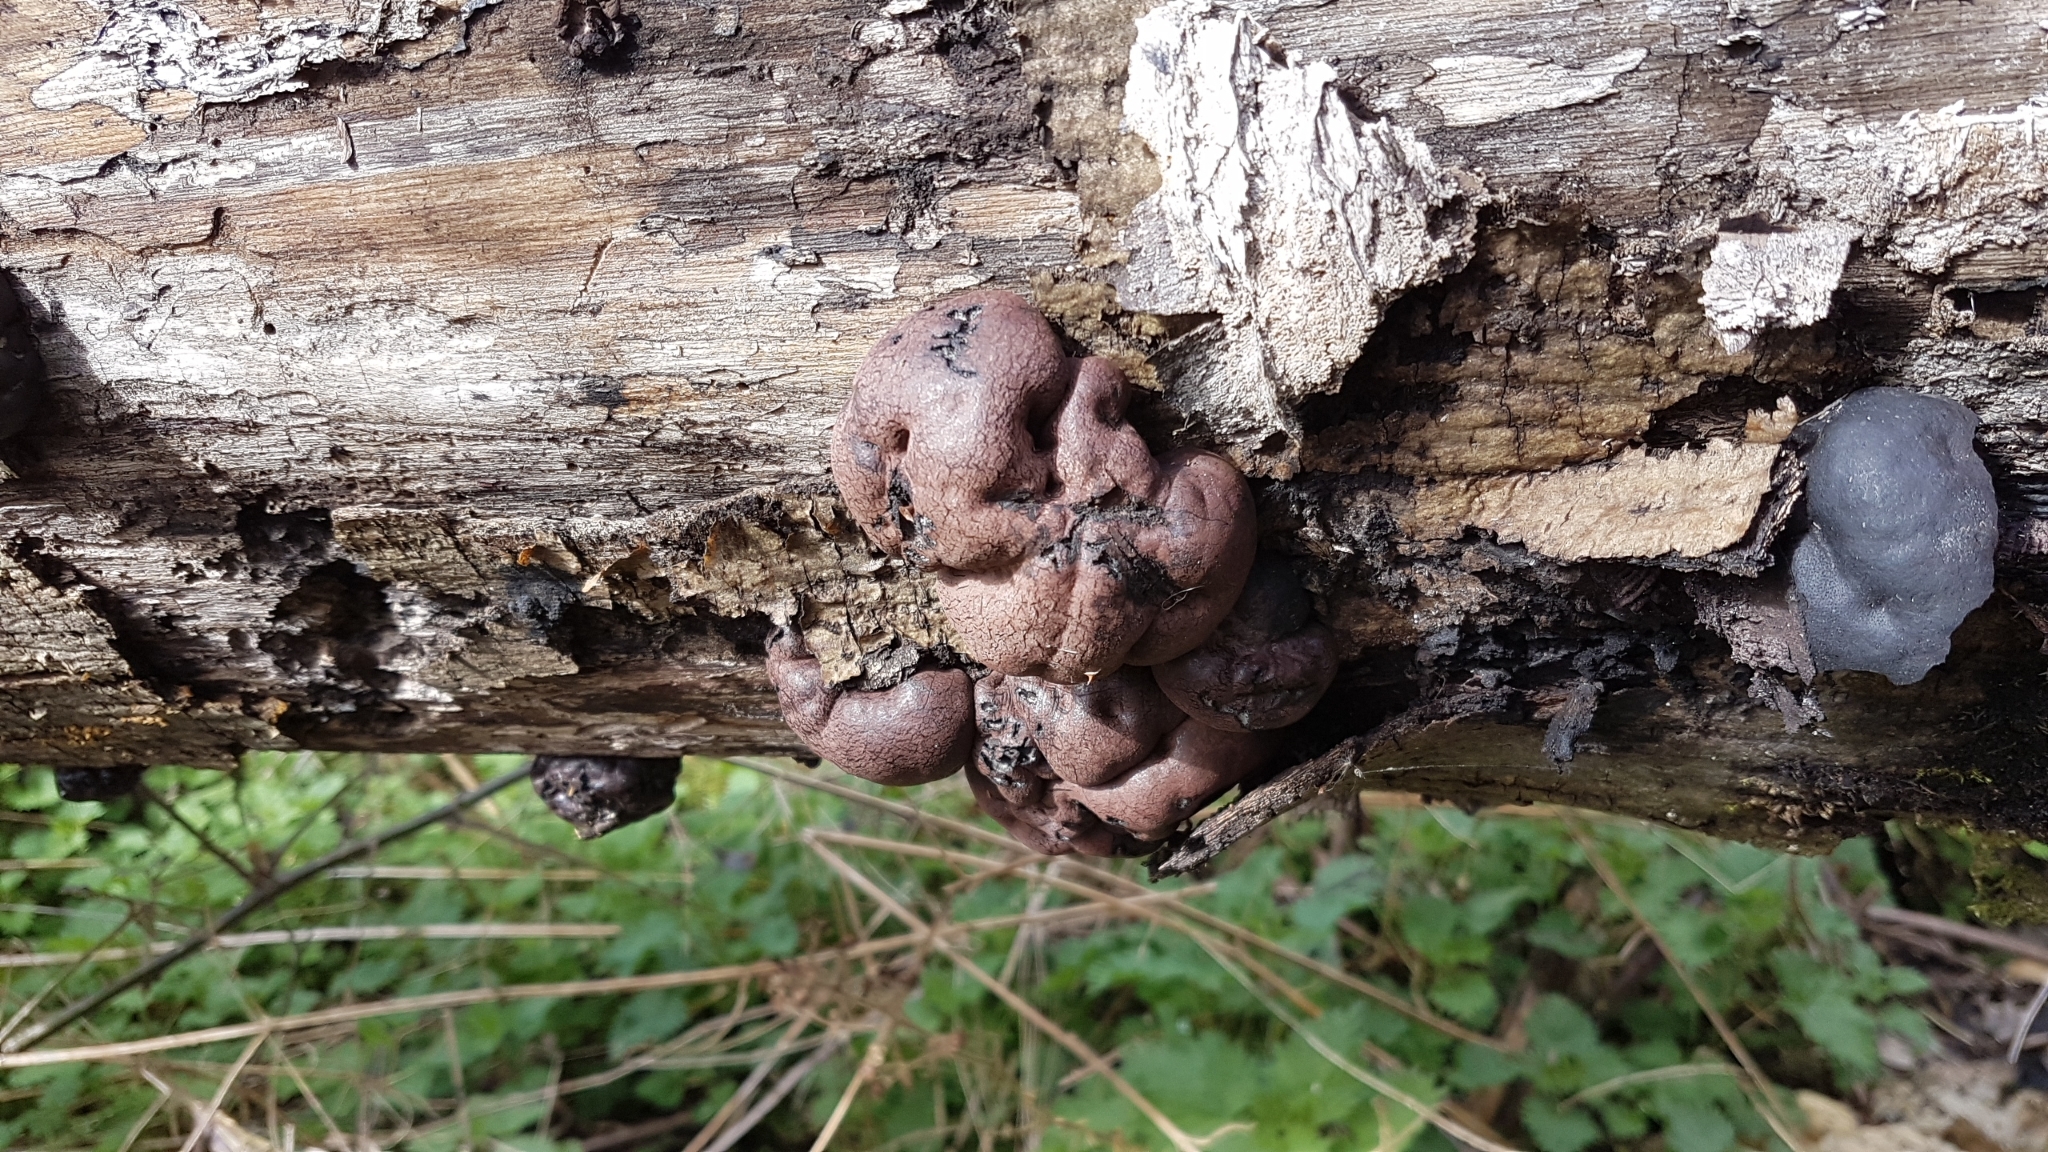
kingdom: Fungi
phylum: Ascomycota
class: Sordariomycetes
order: Xylariales
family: Hypoxylaceae
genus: Daldinia
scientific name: Daldinia concentrica
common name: Cramp balls
